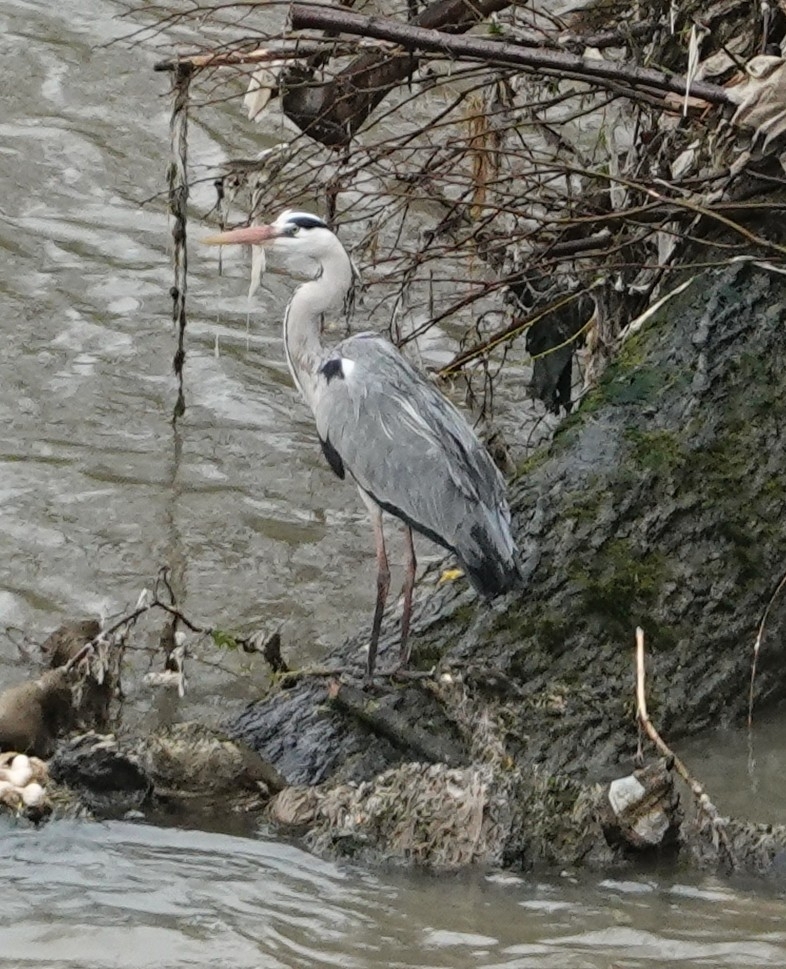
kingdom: Animalia
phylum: Chordata
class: Aves
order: Pelecaniformes
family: Ardeidae
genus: Ardea
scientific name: Ardea cinerea
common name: Grey heron
